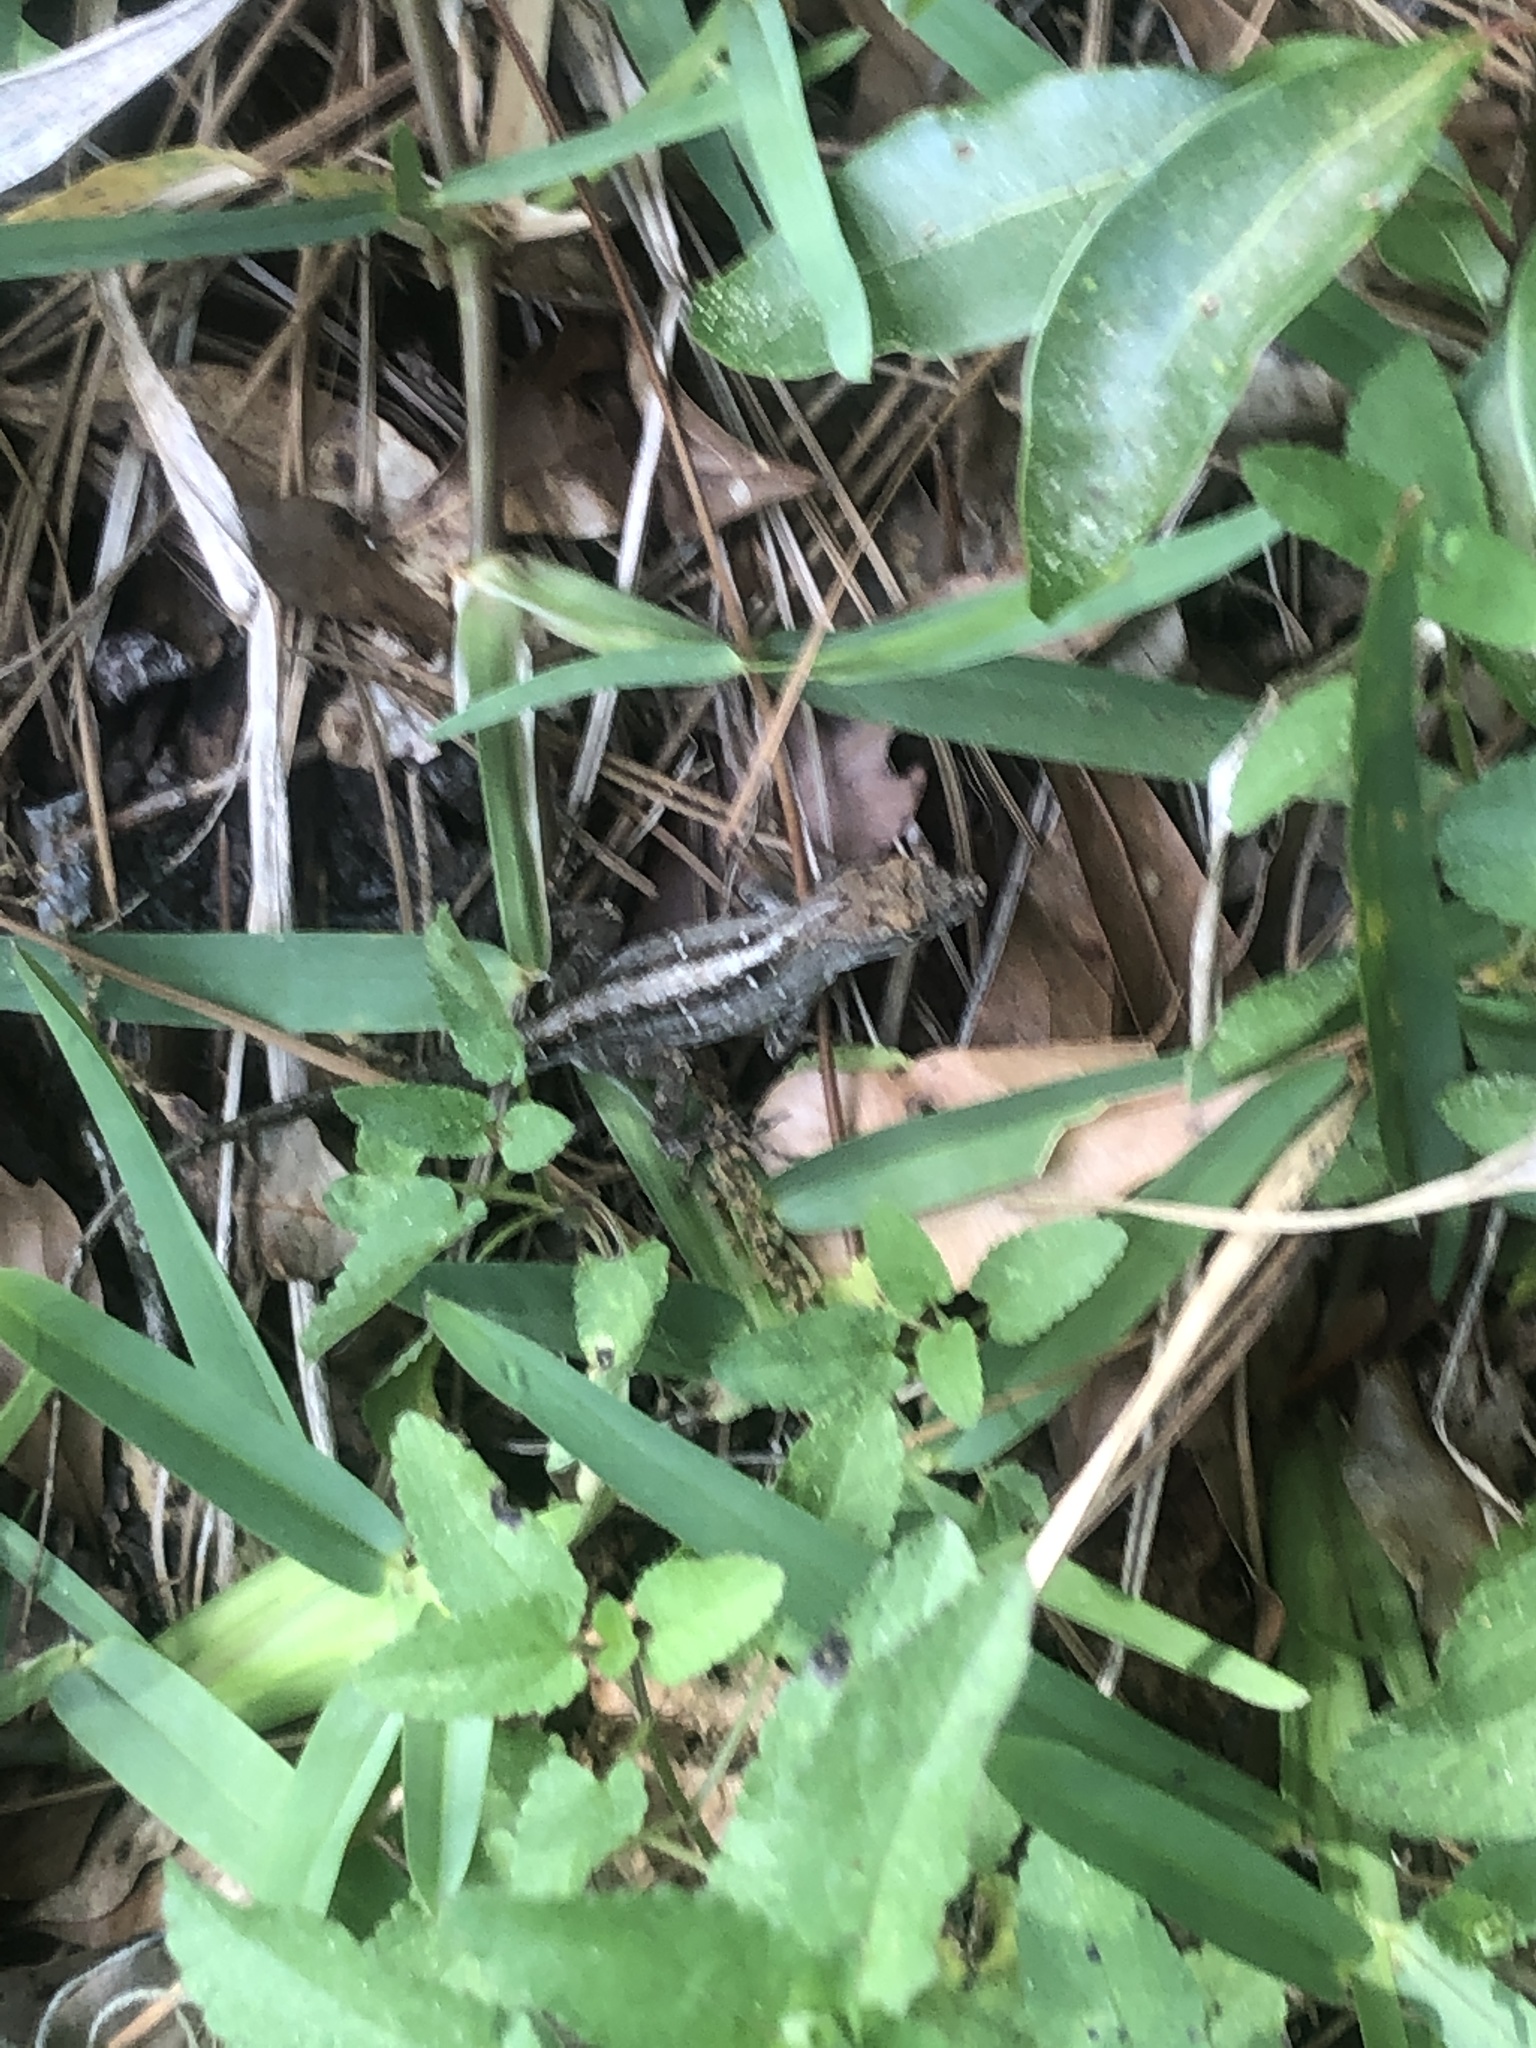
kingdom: Animalia
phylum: Chordata
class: Squamata
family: Dactyloidae
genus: Anolis
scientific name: Anolis sagrei
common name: Brown anole
